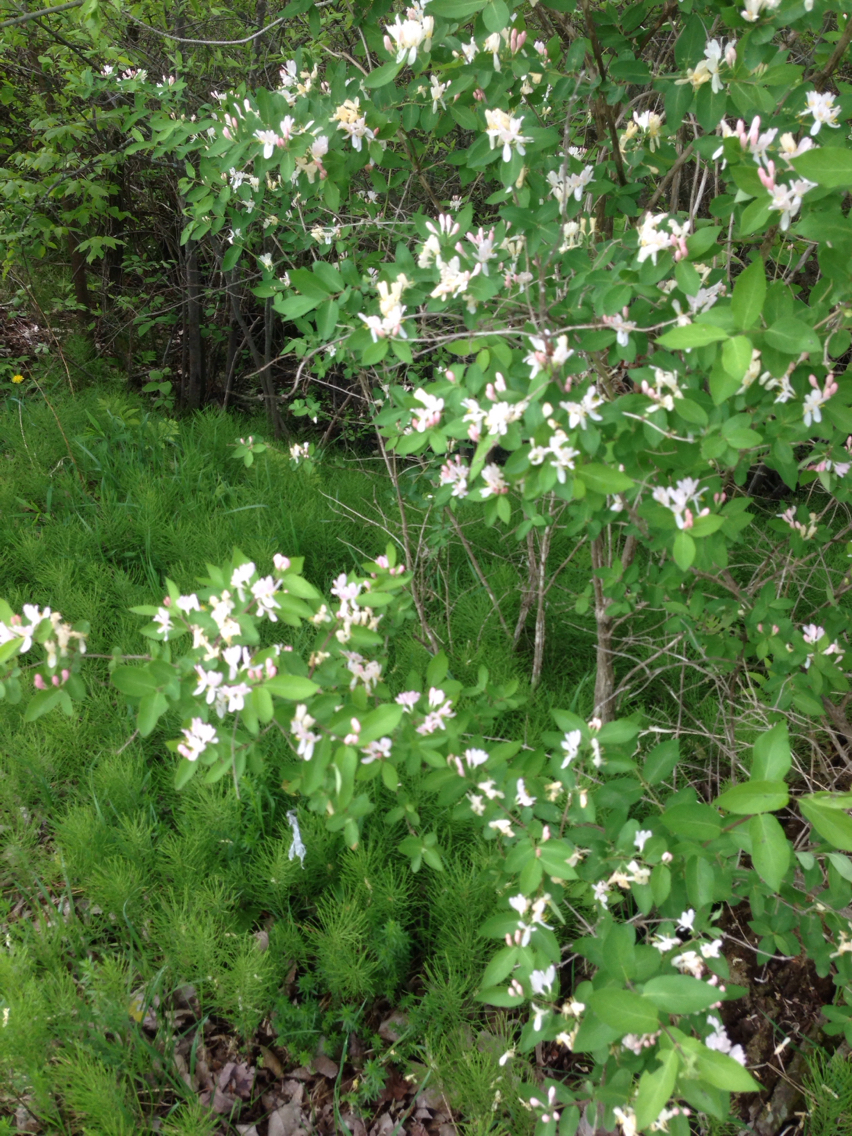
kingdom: Plantae
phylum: Tracheophyta
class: Magnoliopsida
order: Dipsacales
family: Caprifoliaceae
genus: Lonicera
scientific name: Lonicera tatarica
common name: Tatarian honeysuckle
